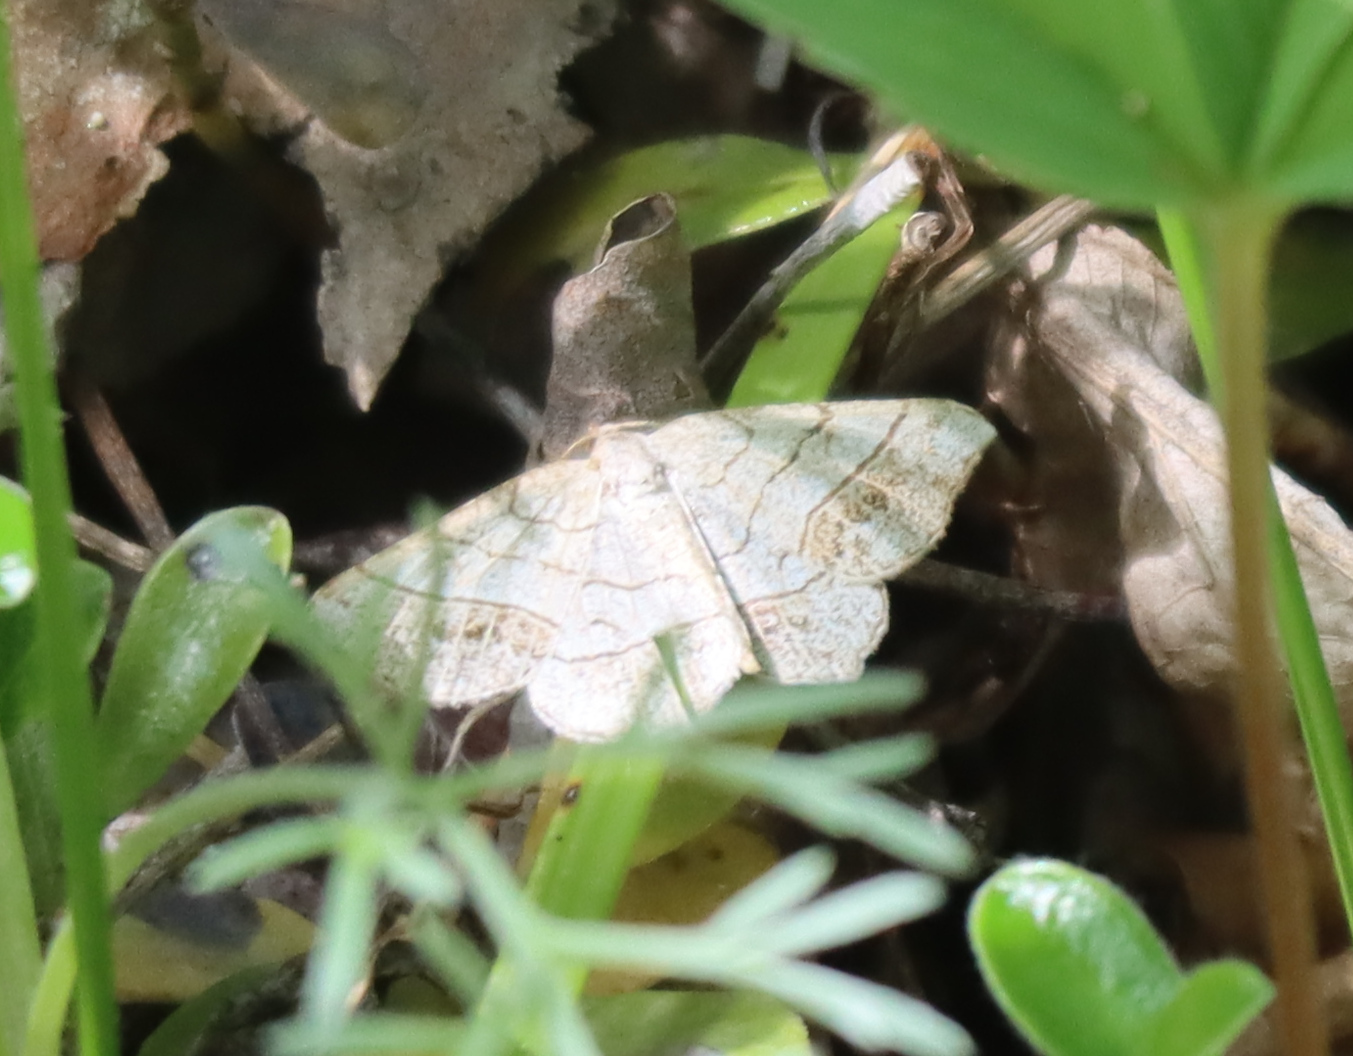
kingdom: Animalia
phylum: Arthropoda
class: Insecta
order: Lepidoptera
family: Geometridae
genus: Eumacaria
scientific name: Eumacaria madopata
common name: Brown-bordered geometer
